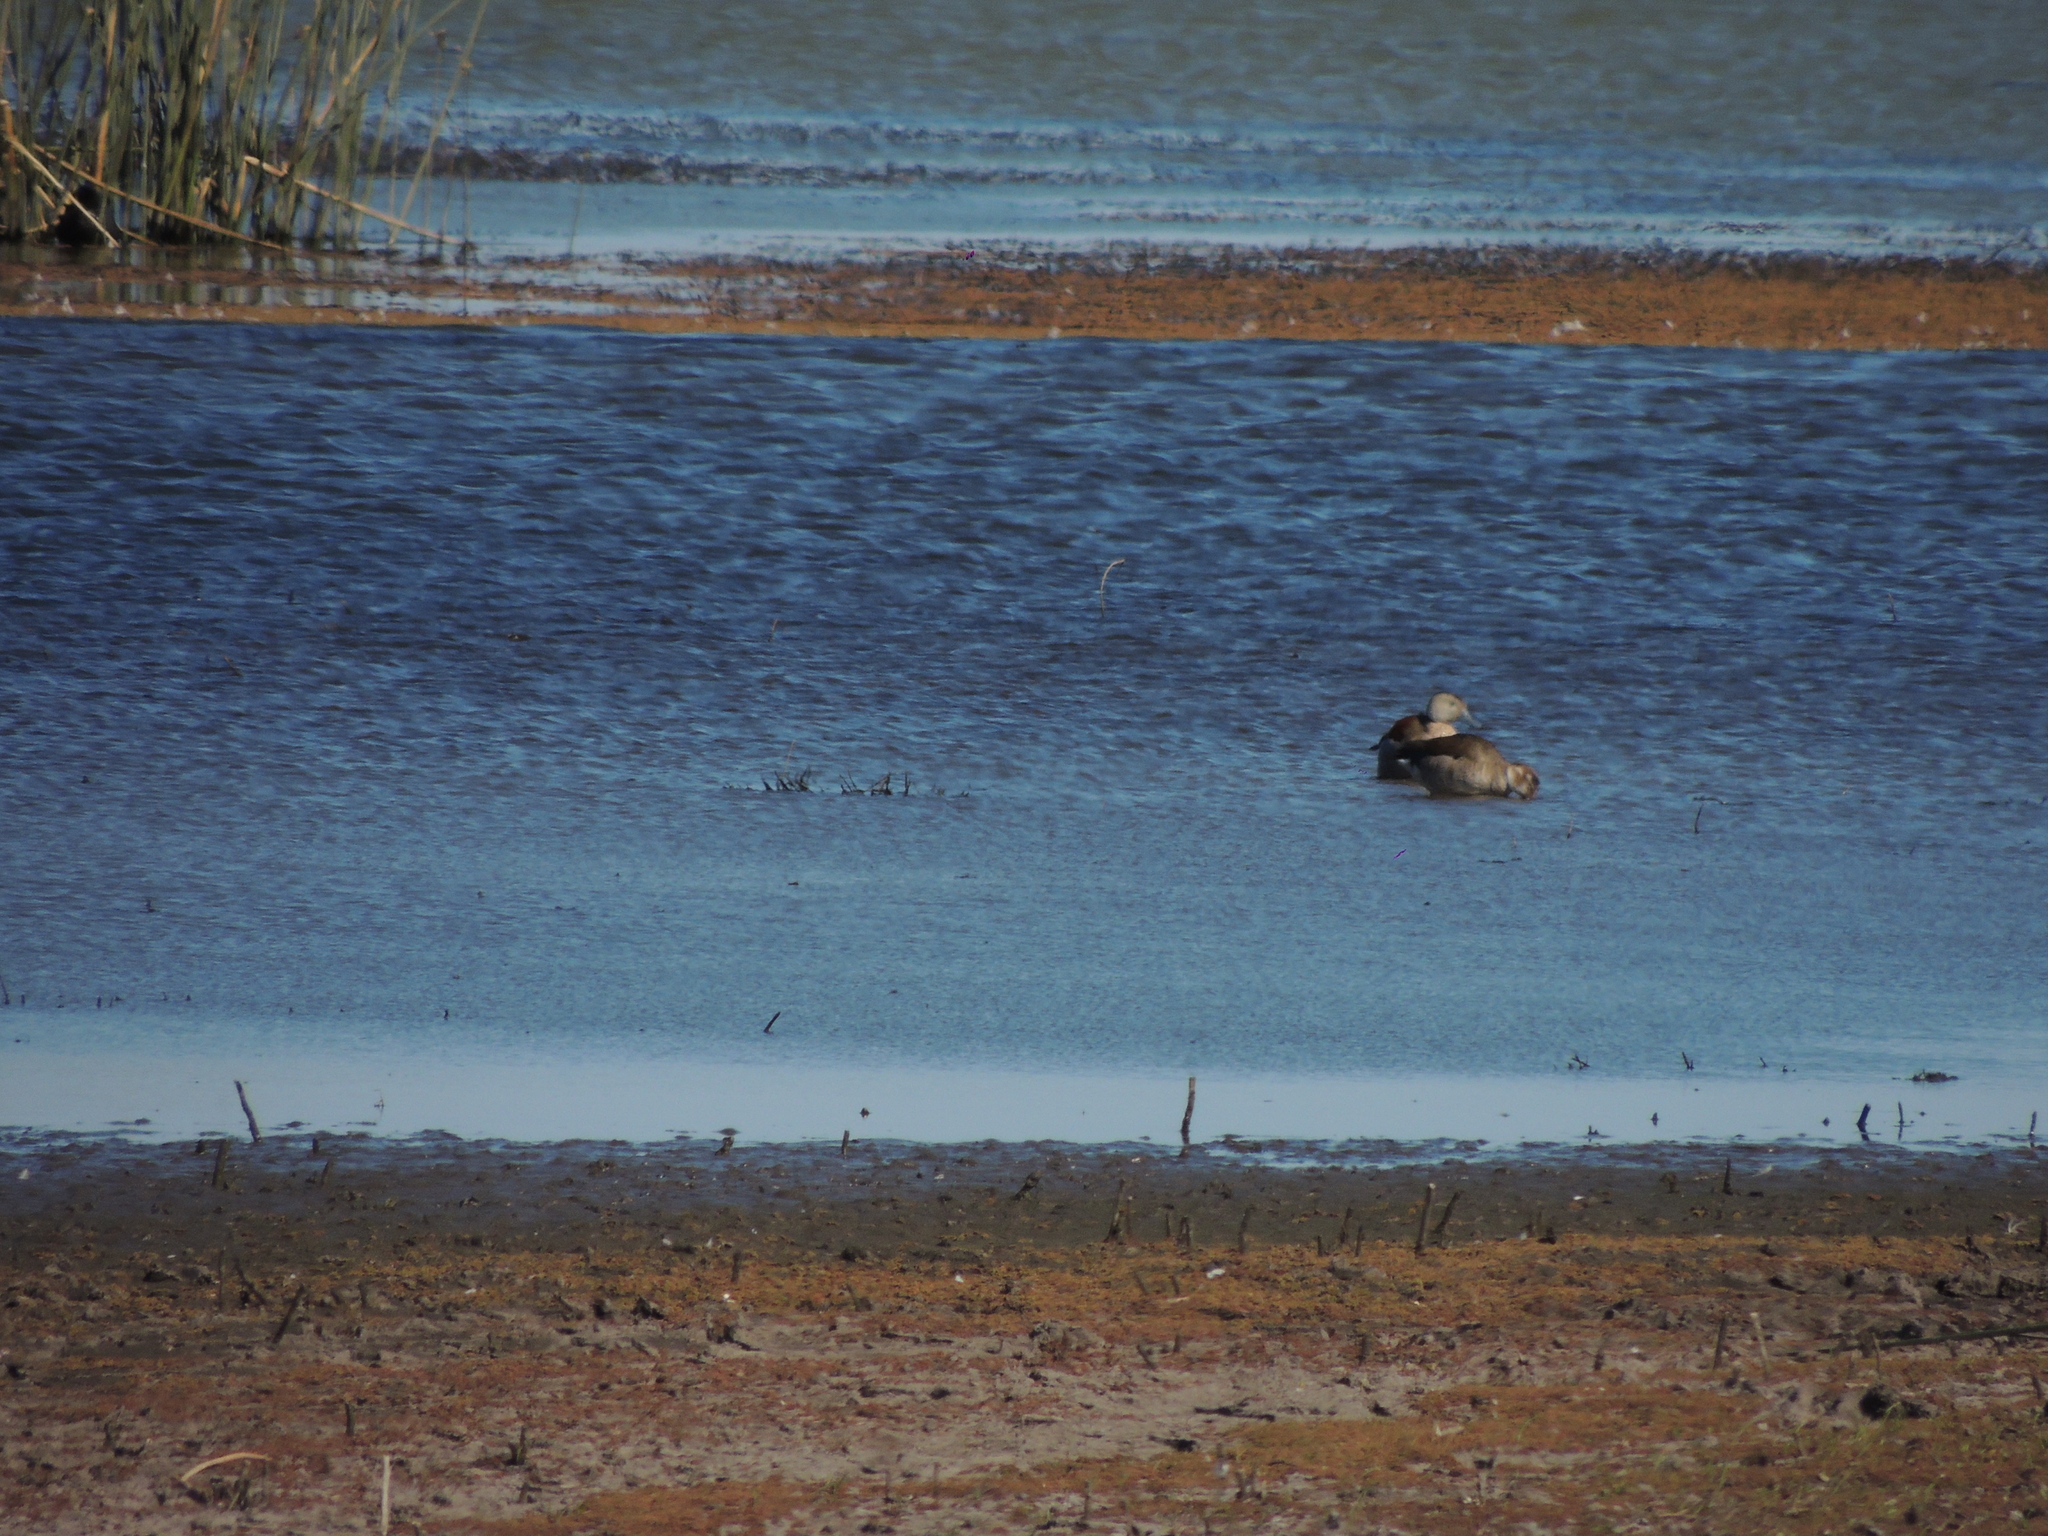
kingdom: Animalia
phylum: Chordata
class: Aves
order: Anseriformes
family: Anatidae
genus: Callonetta
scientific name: Callonetta leucophrys
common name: Ringed teal
